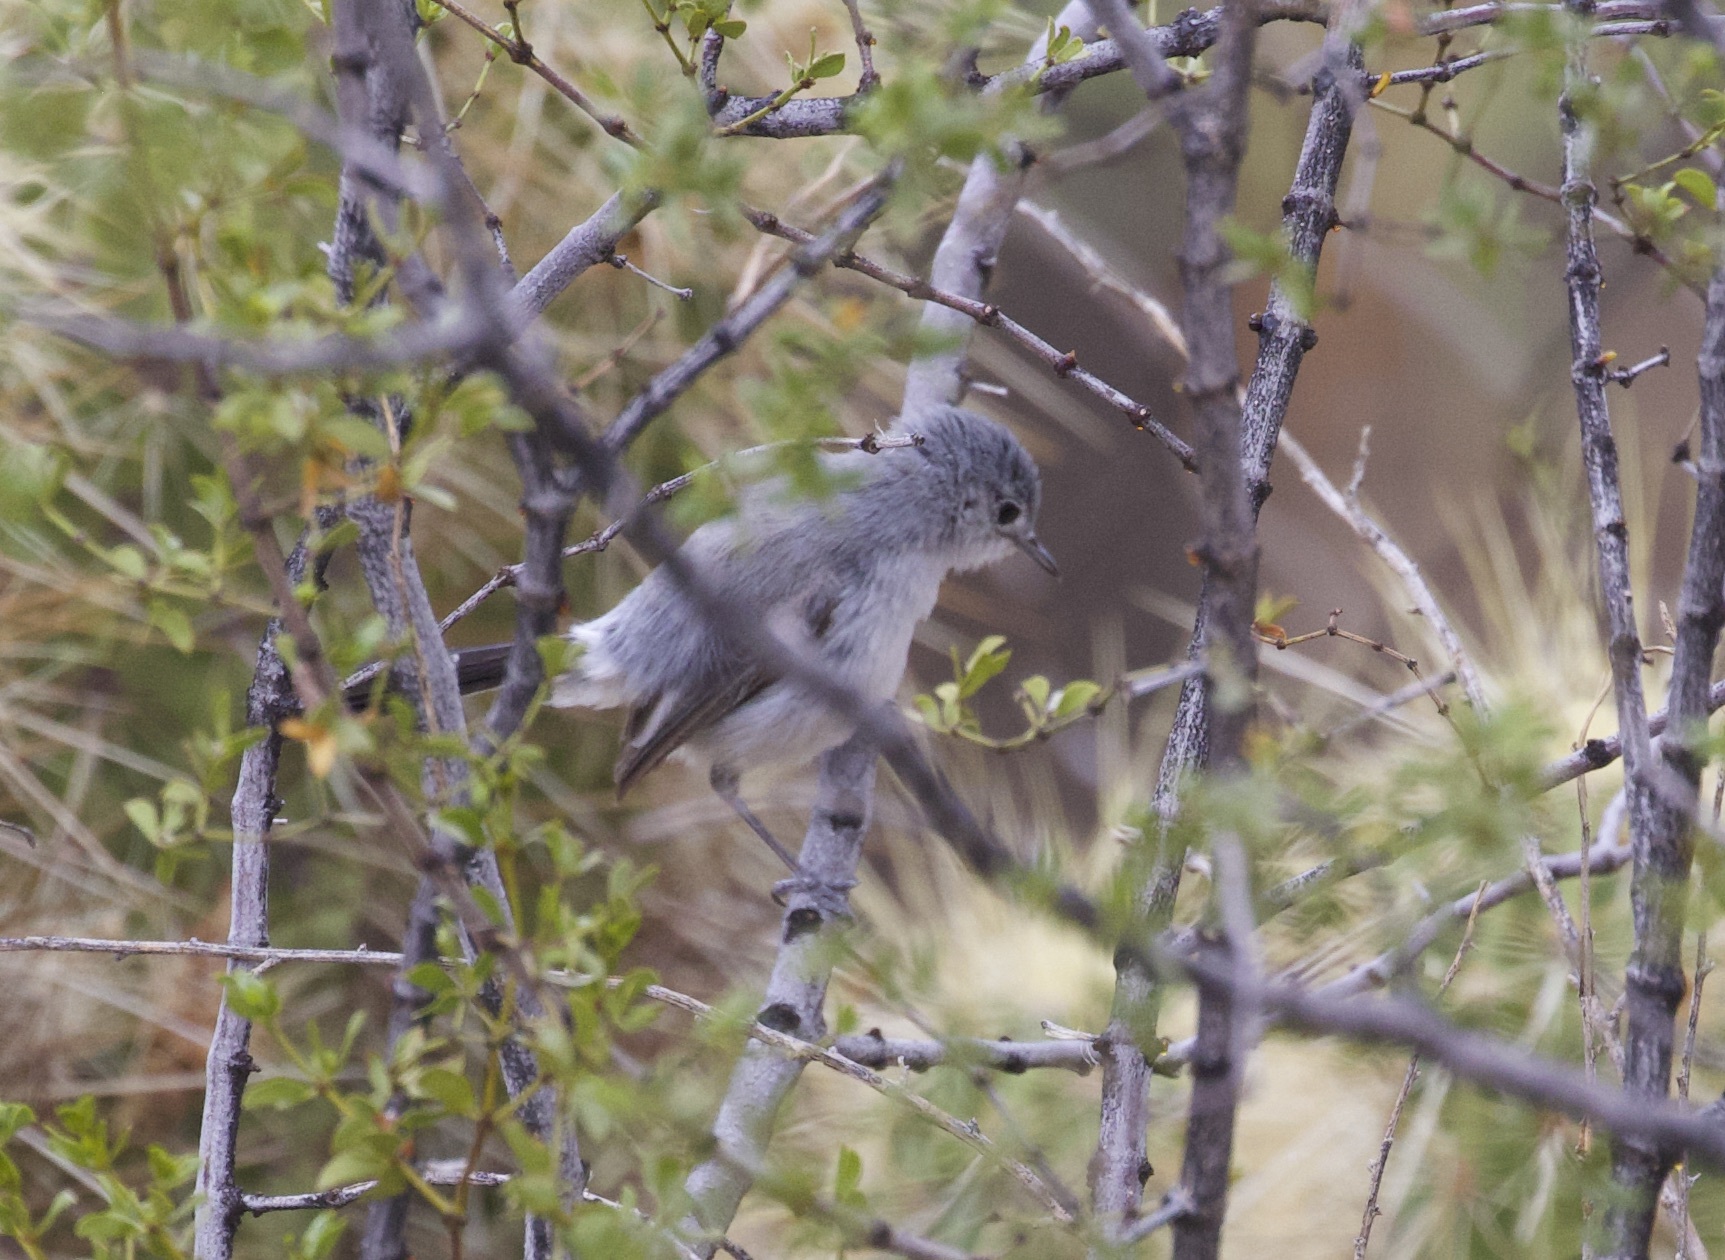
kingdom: Animalia
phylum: Chordata
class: Aves
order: Passeriformes
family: Polioptilidae
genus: Polioptila
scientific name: Polioptila melanura
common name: Black-tailed gnatcatcher
